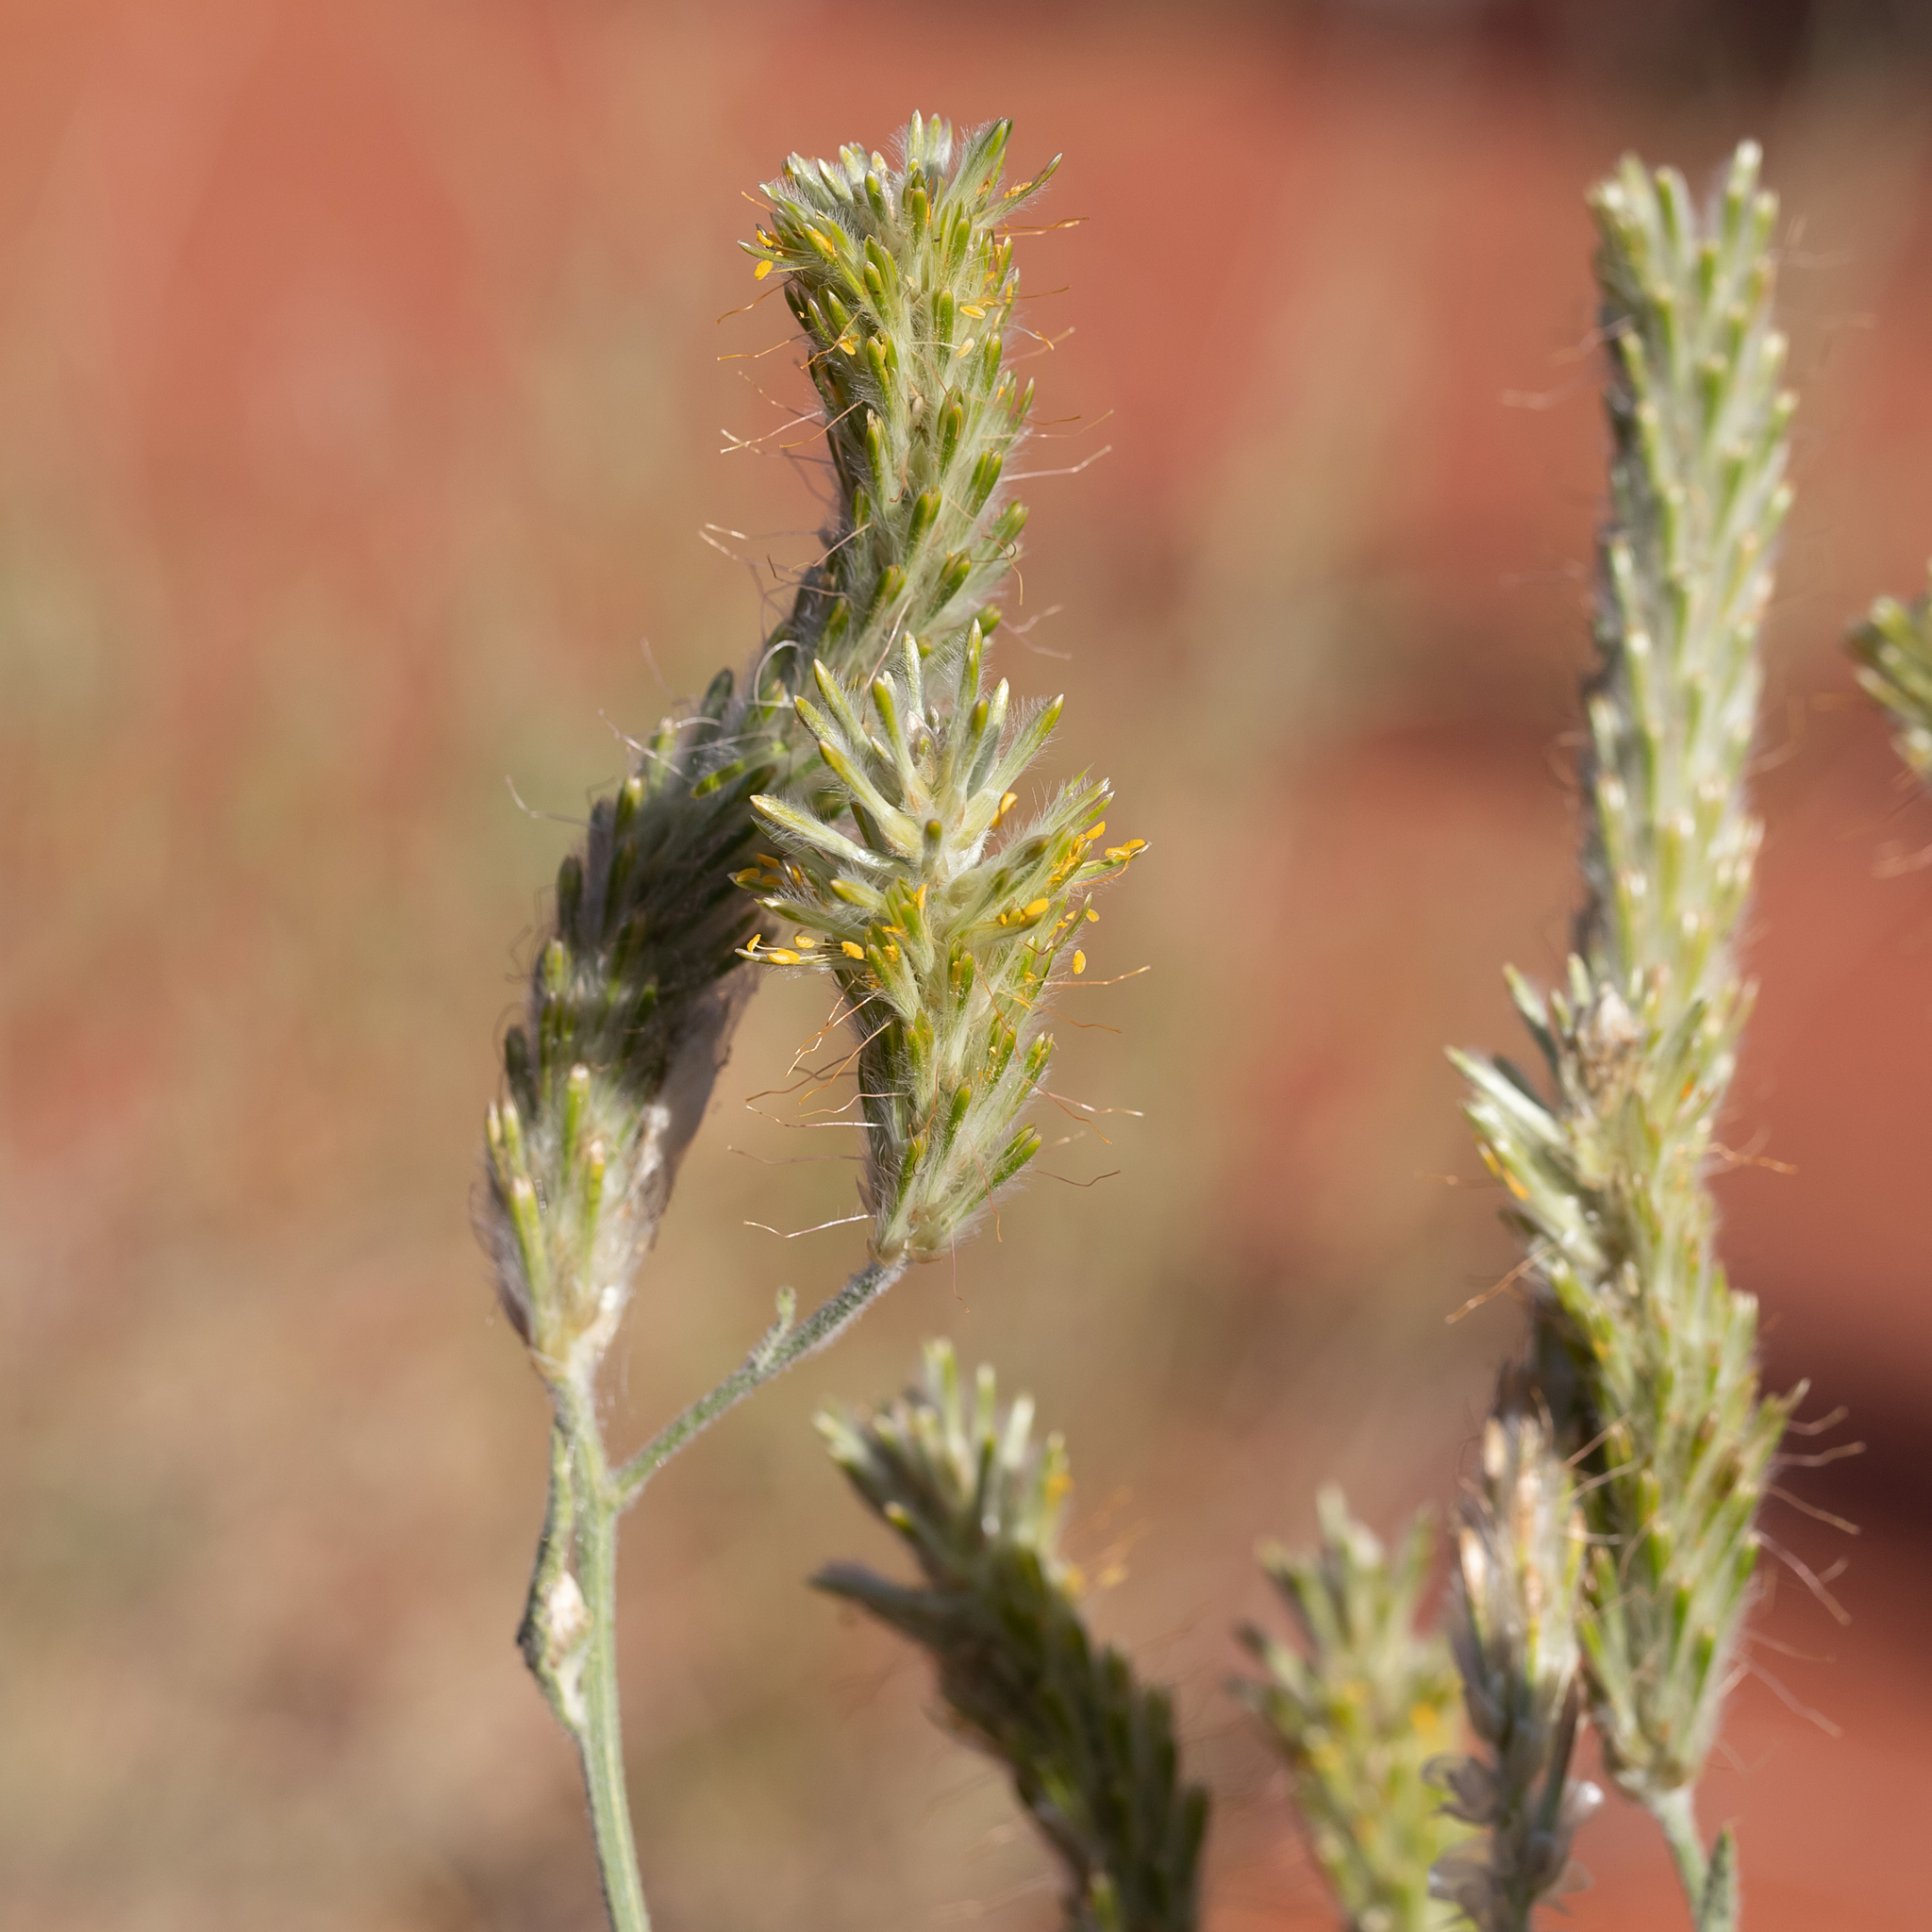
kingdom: Plantae
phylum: Tracheophyta
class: Magnoliopsida
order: Caryophyllales
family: Amaranthaceae
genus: Ptilotus
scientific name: Ptilotus polystachyus
